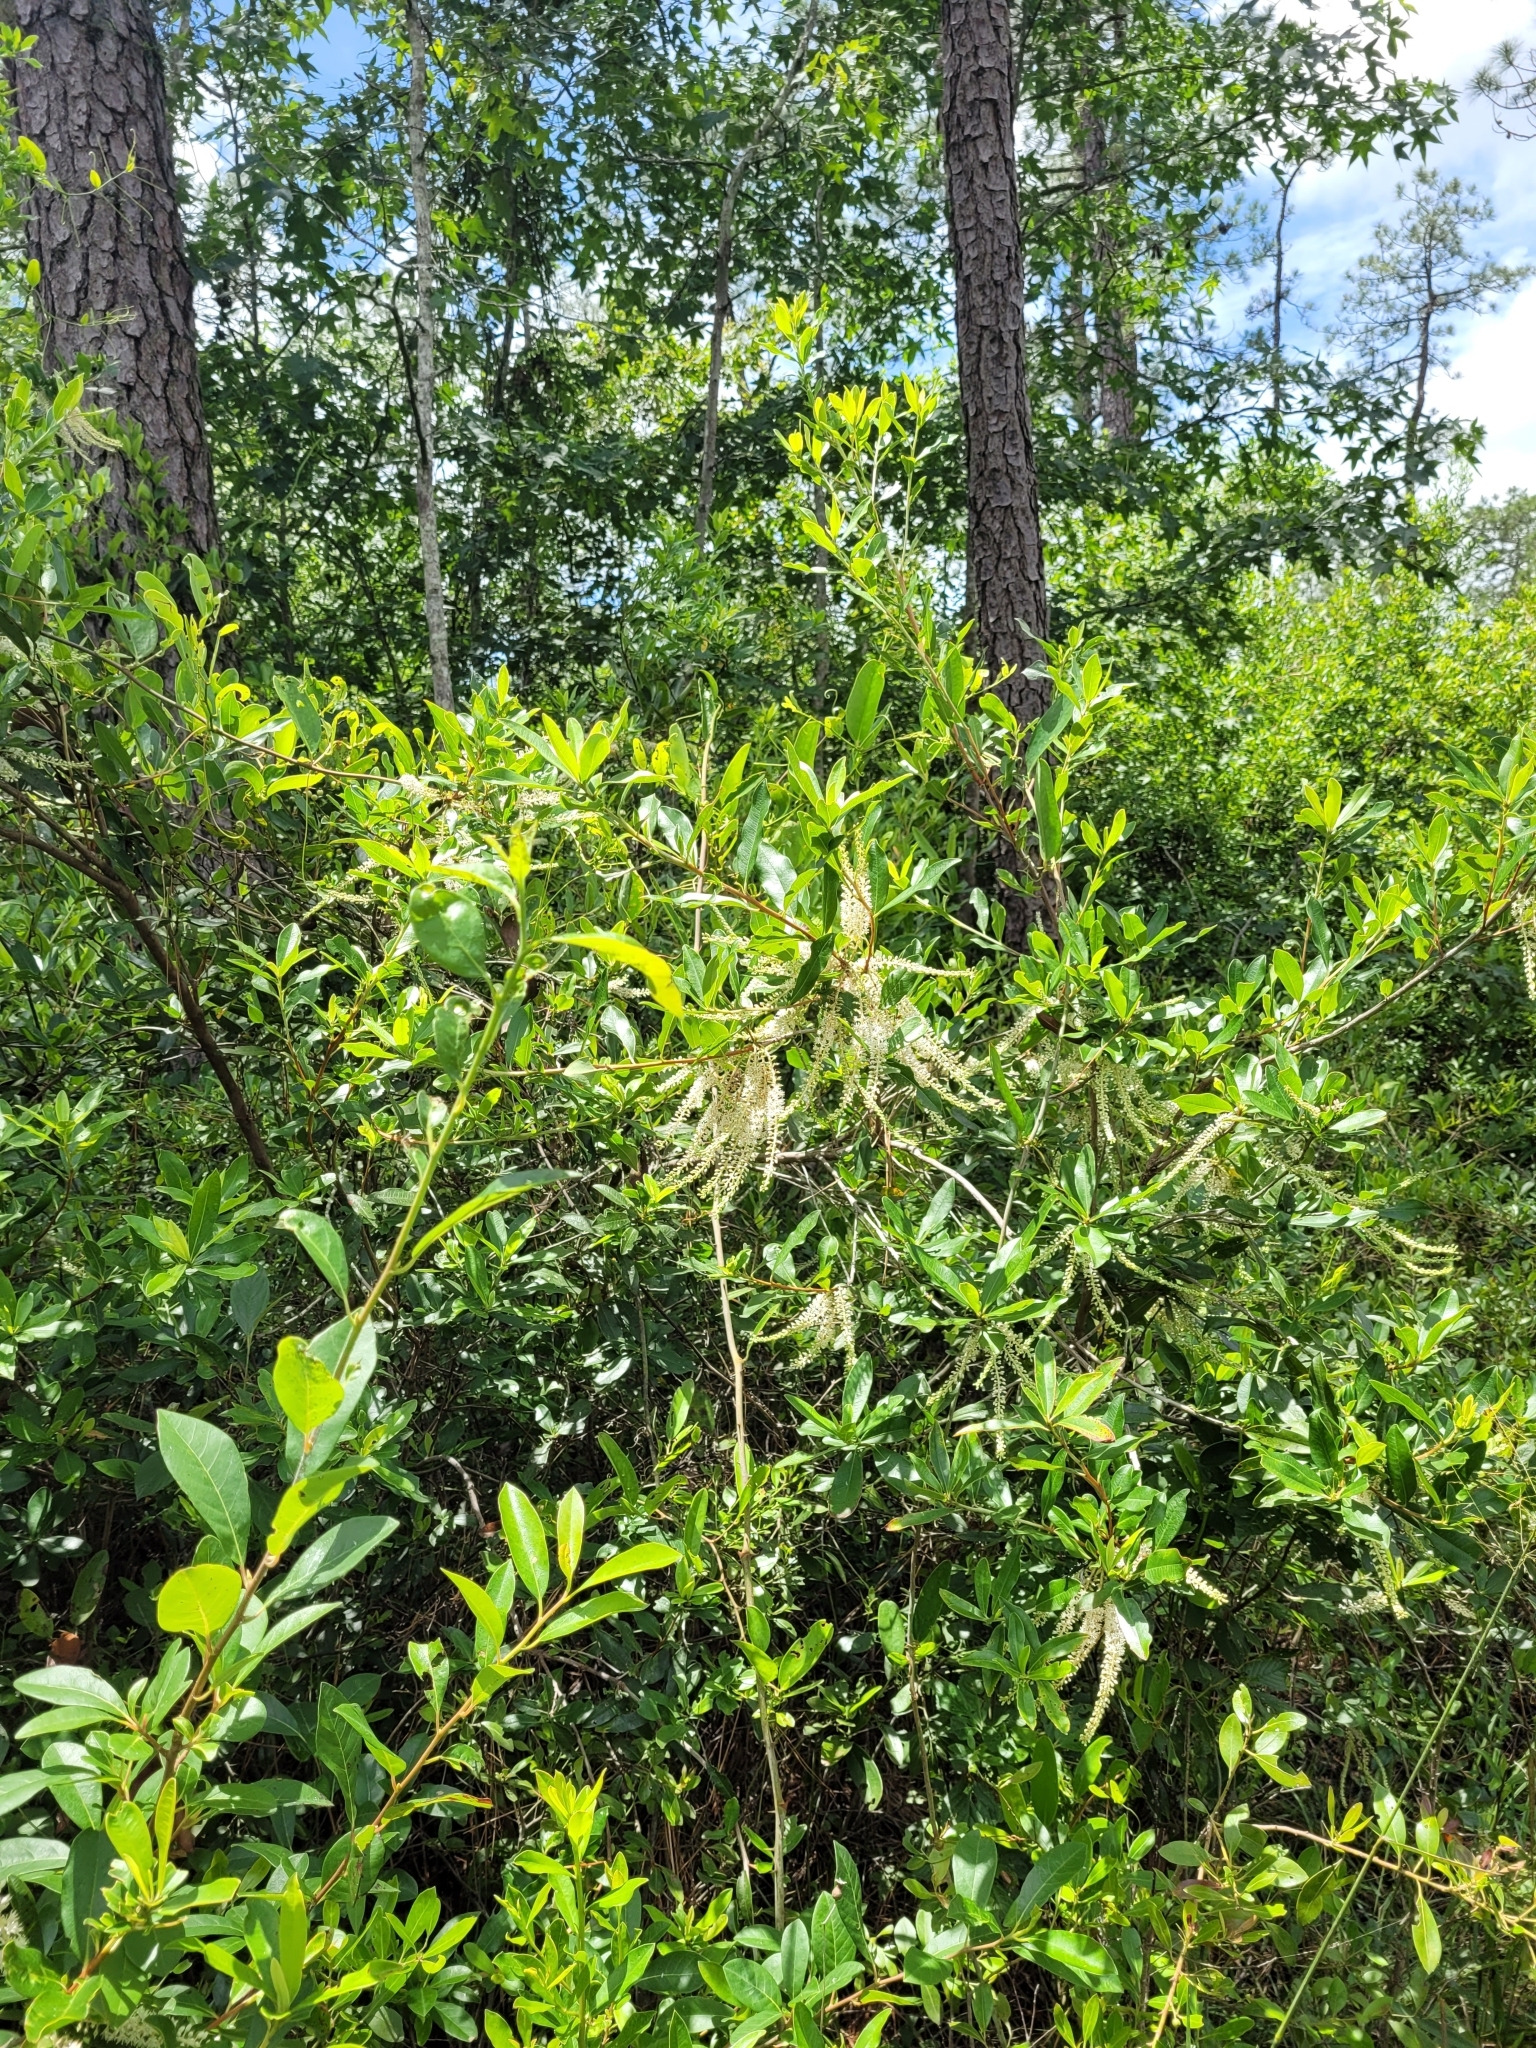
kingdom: Plantae
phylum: Tracheophyta
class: Magnoliopsida
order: Ericales
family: Cyrillaceae
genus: Cyrilla
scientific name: Cyrilla racemiflora
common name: Black titi
